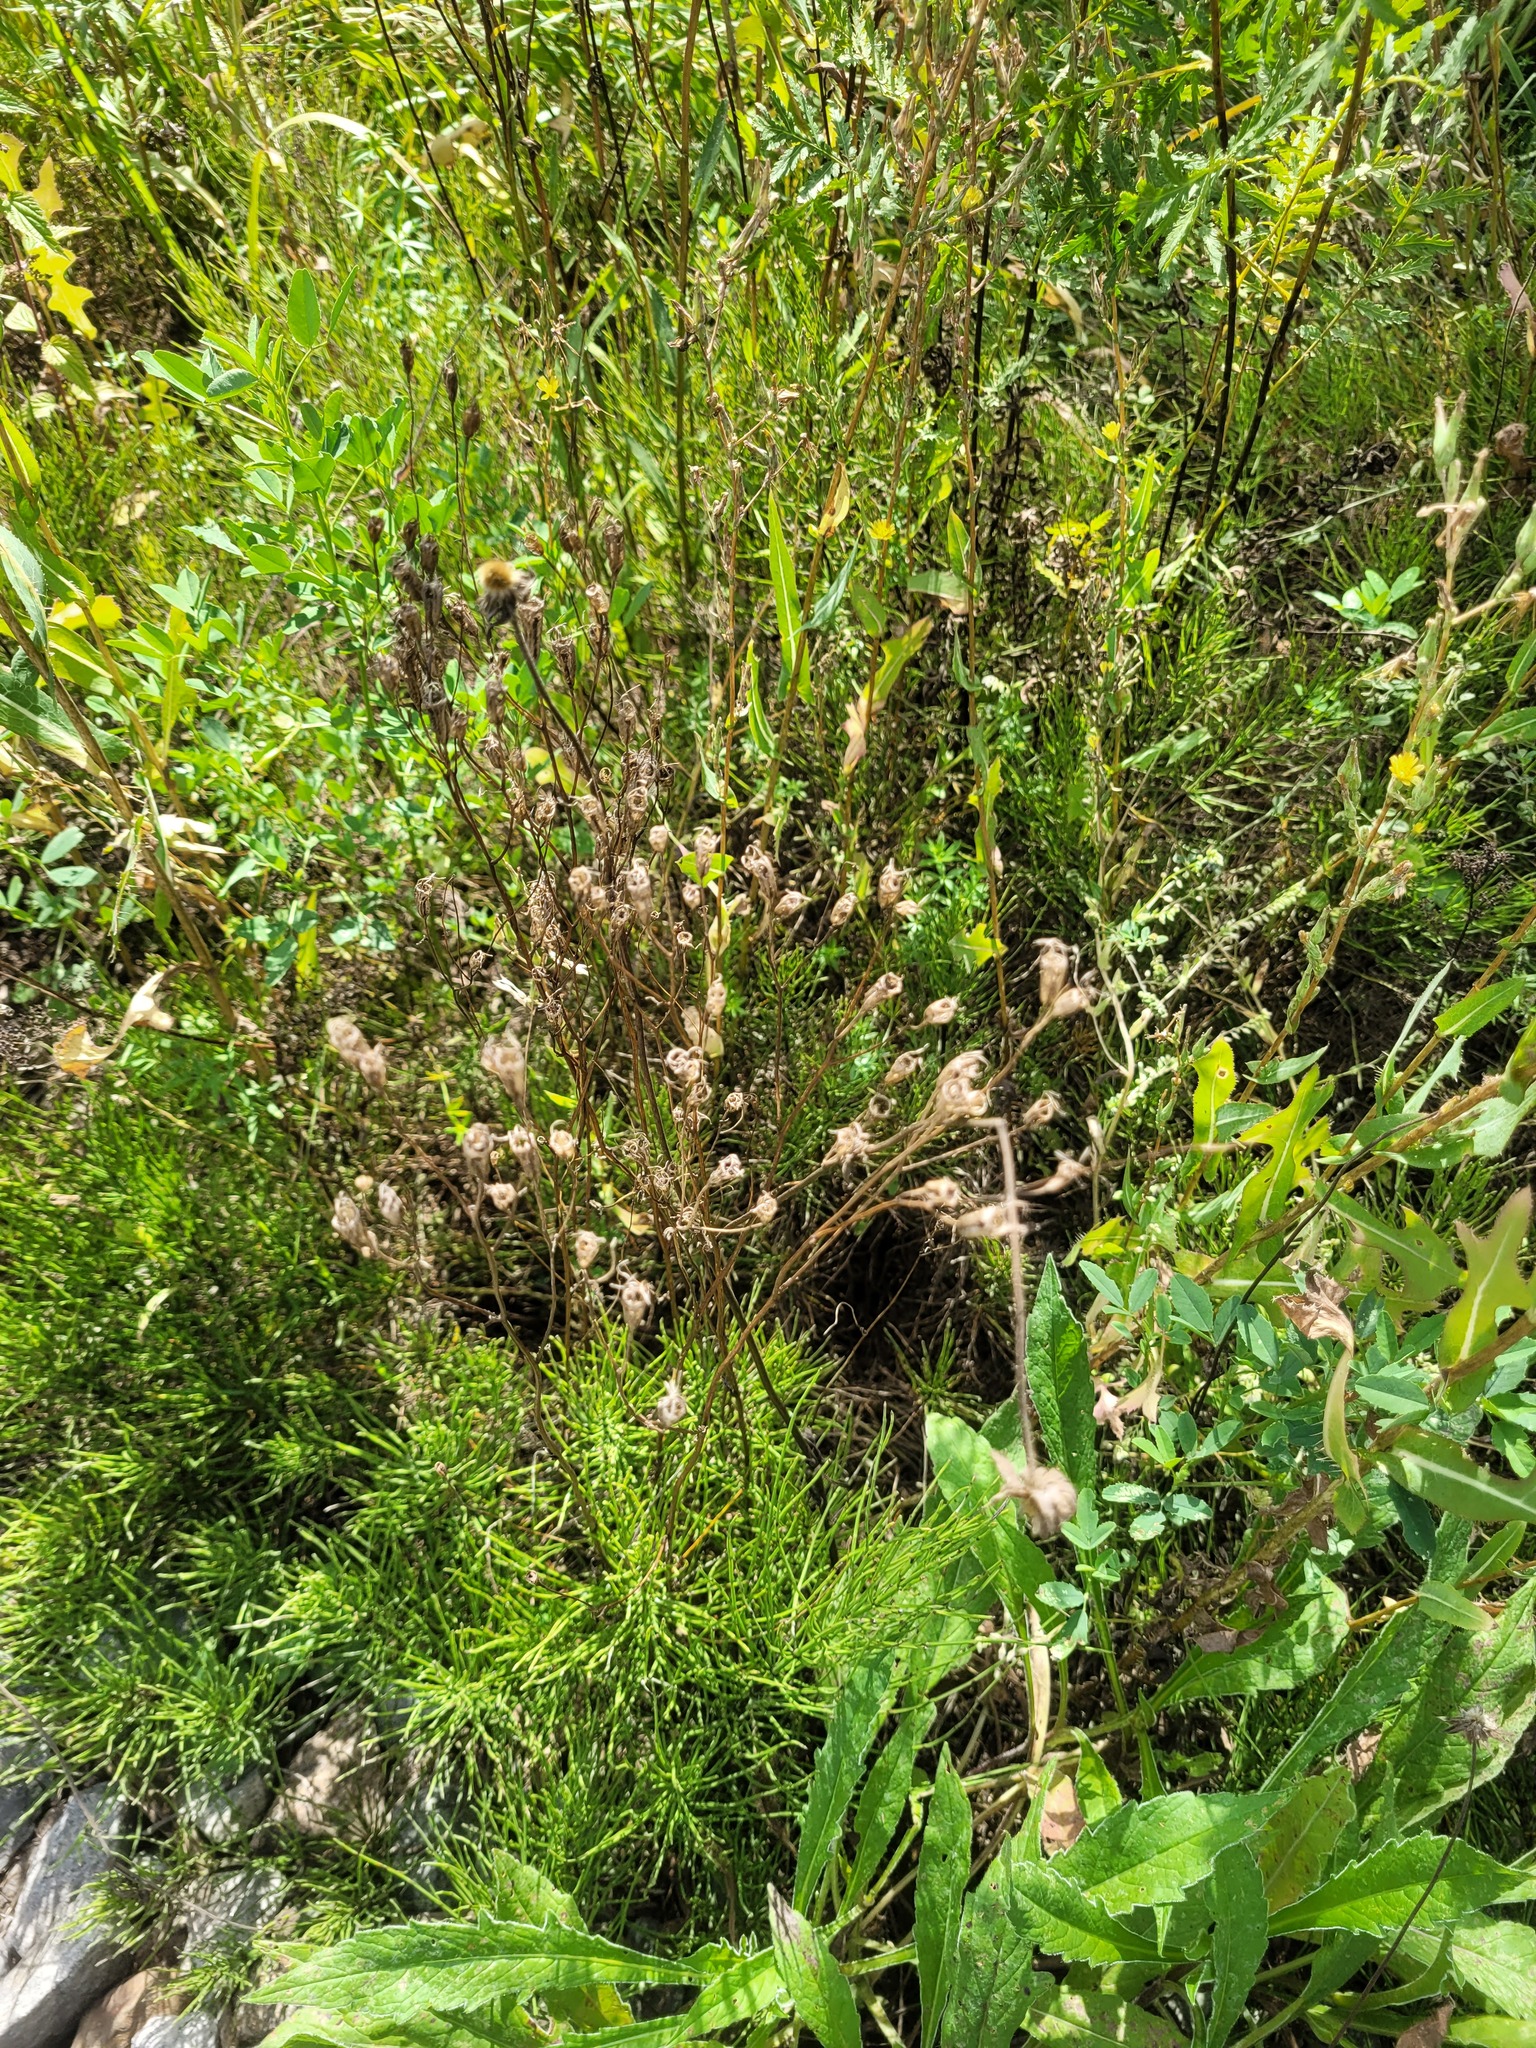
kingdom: Plantae
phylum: Tracheophyta
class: Magnoliopsida
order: Asterales
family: Campanulaceae
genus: Campanula
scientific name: Campanula patula
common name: Spreading bellflower
